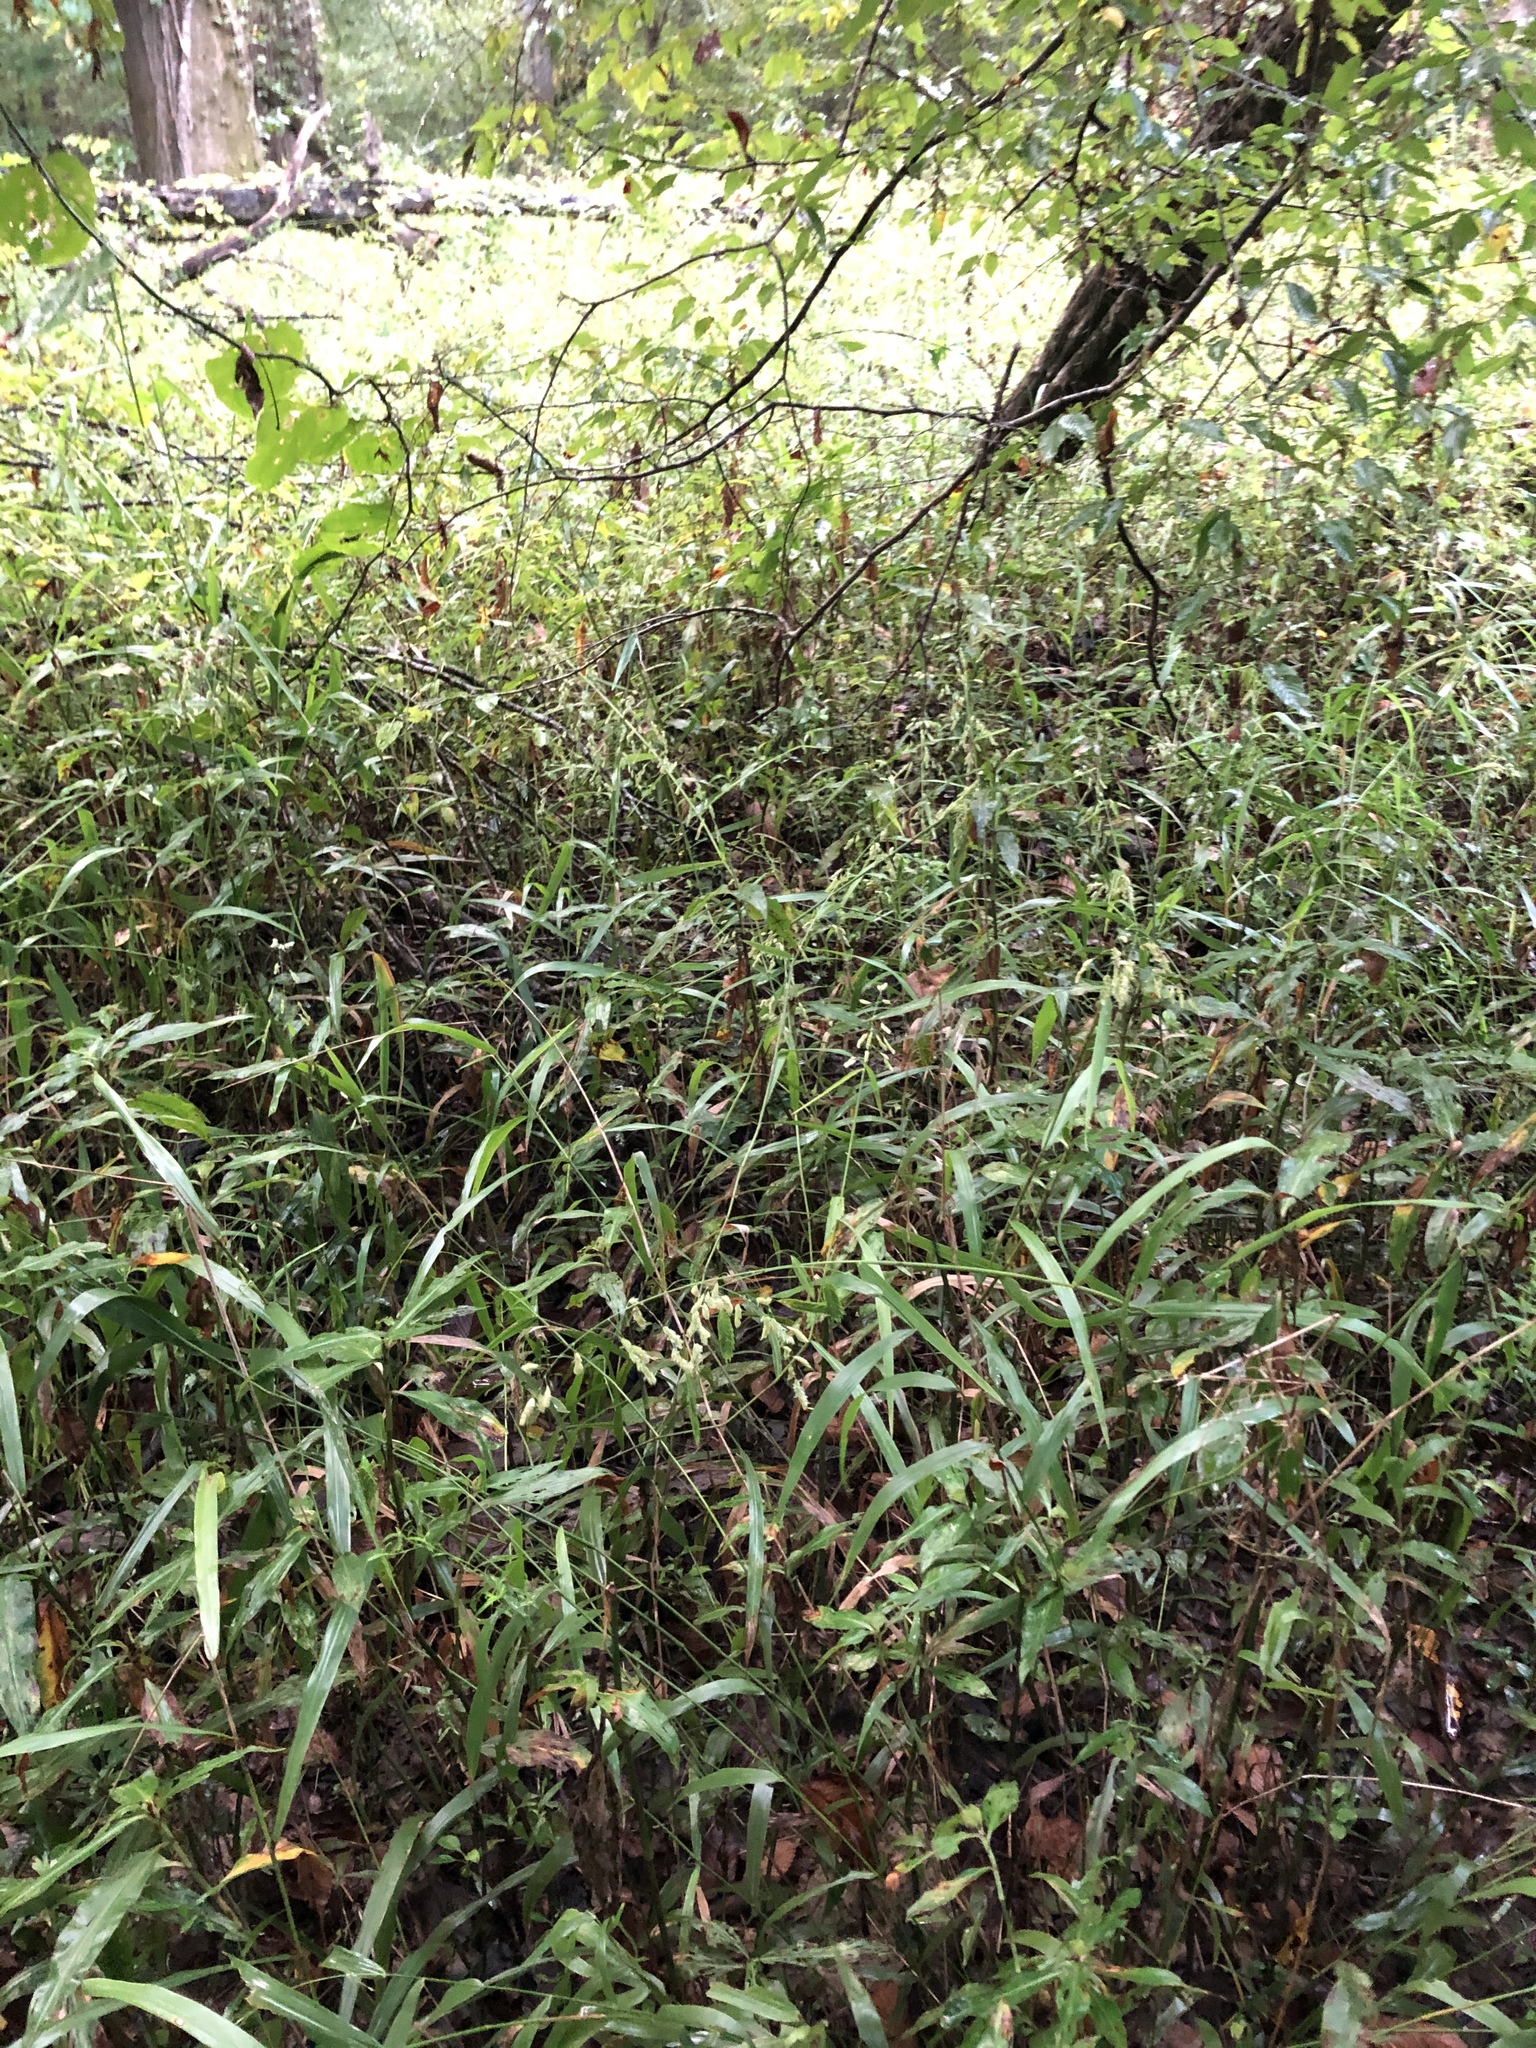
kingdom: Plantae
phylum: Tracheophyta
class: Liliopsida
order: Poales
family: Poaceae
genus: Leersia
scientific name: Leersia lenticularis
